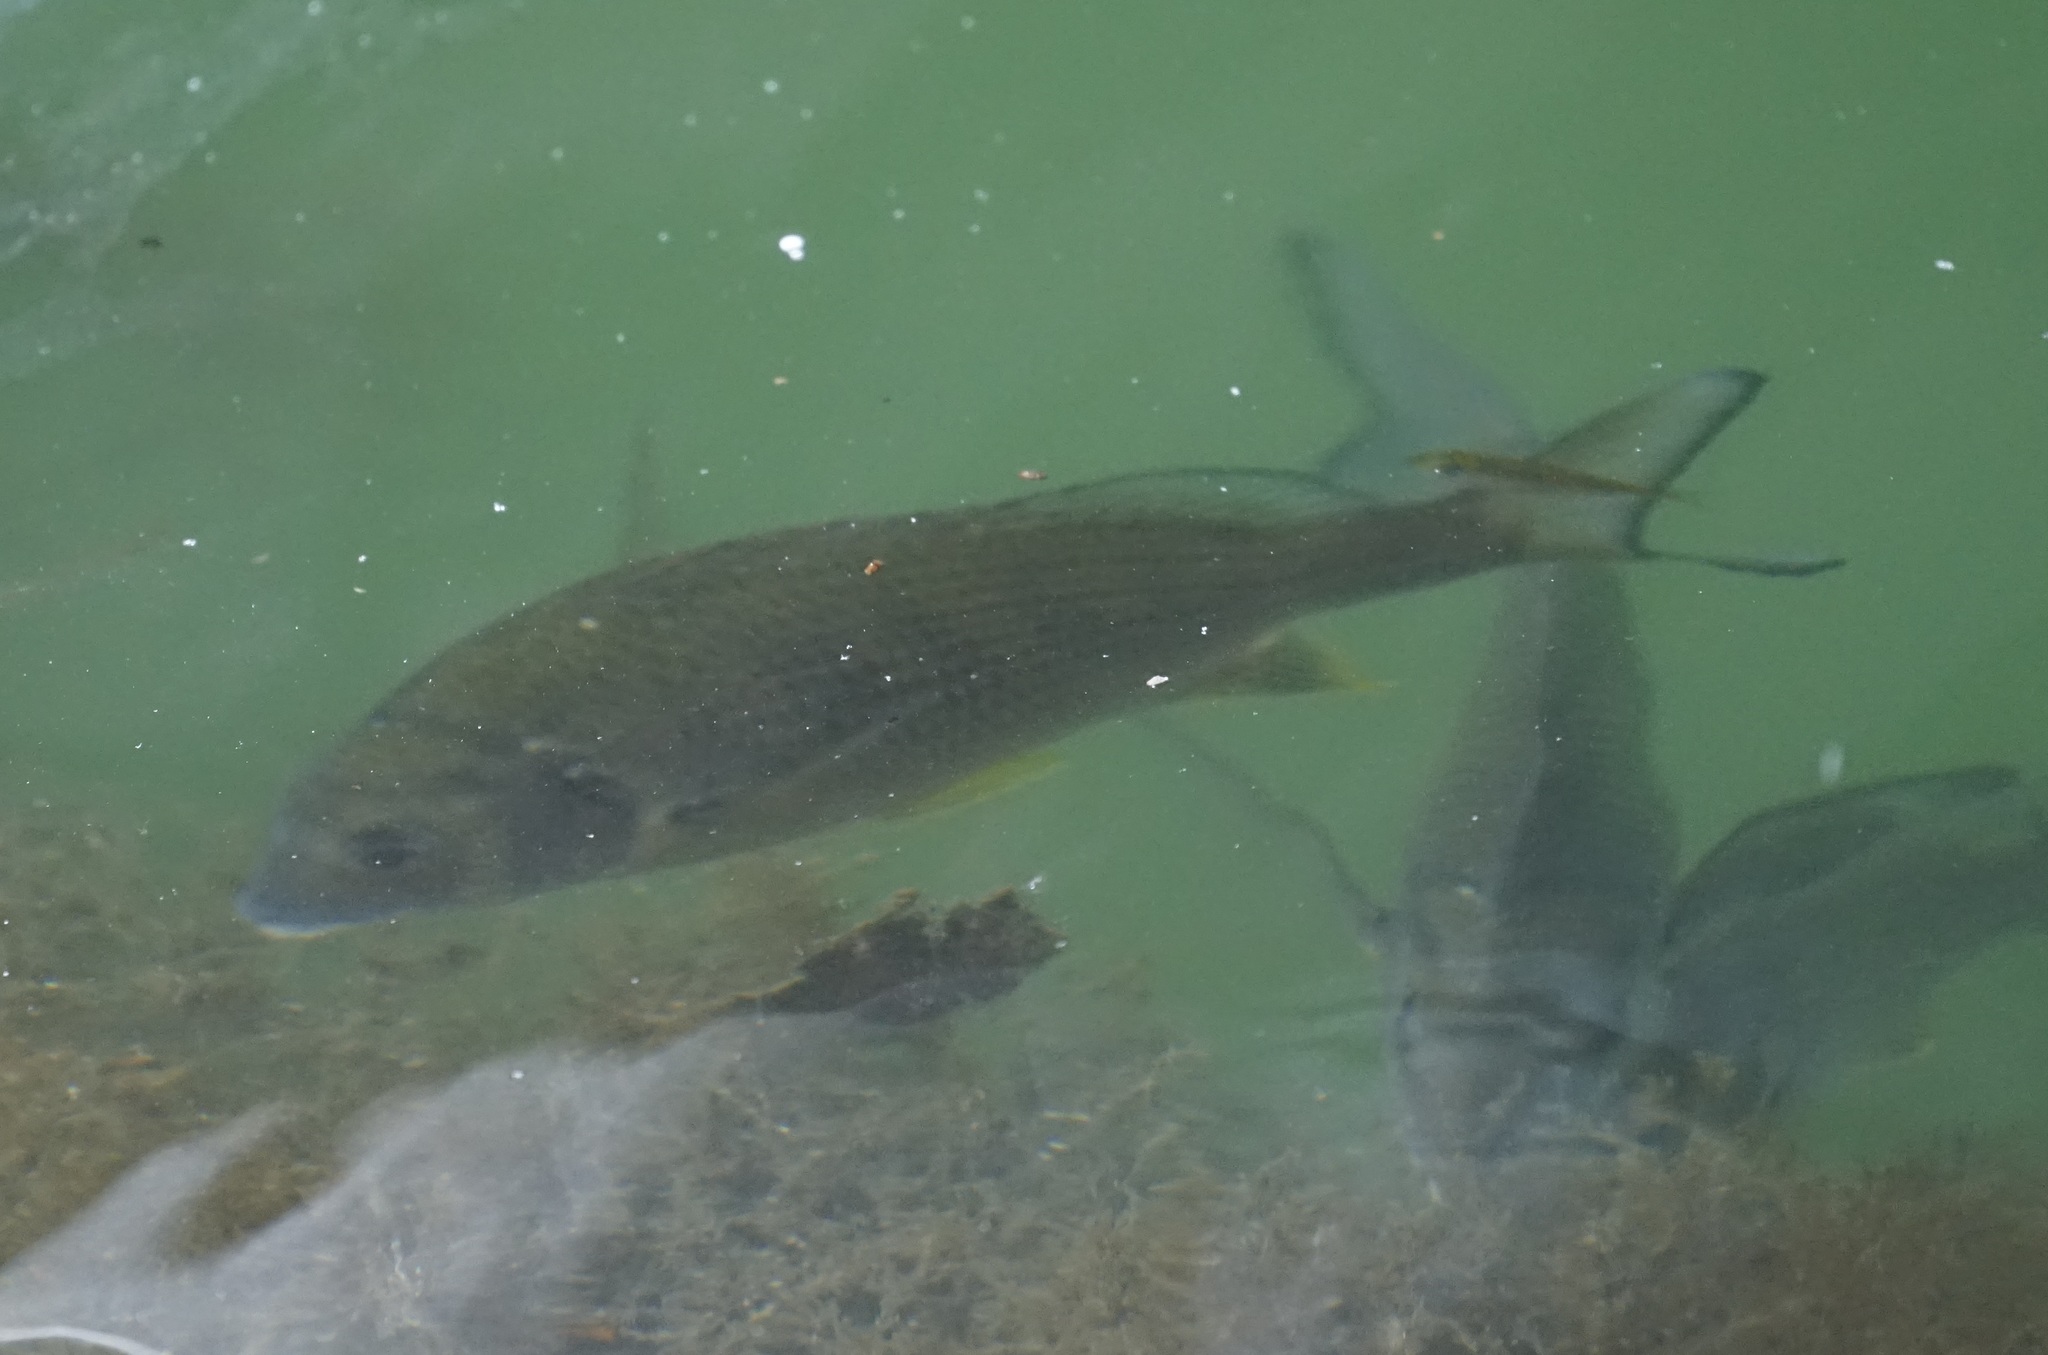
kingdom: Animalia
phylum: Chordata
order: Perciformes
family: Sparidae
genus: Acanthopagrus
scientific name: Acanthopagrus australis
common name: Surf bream
